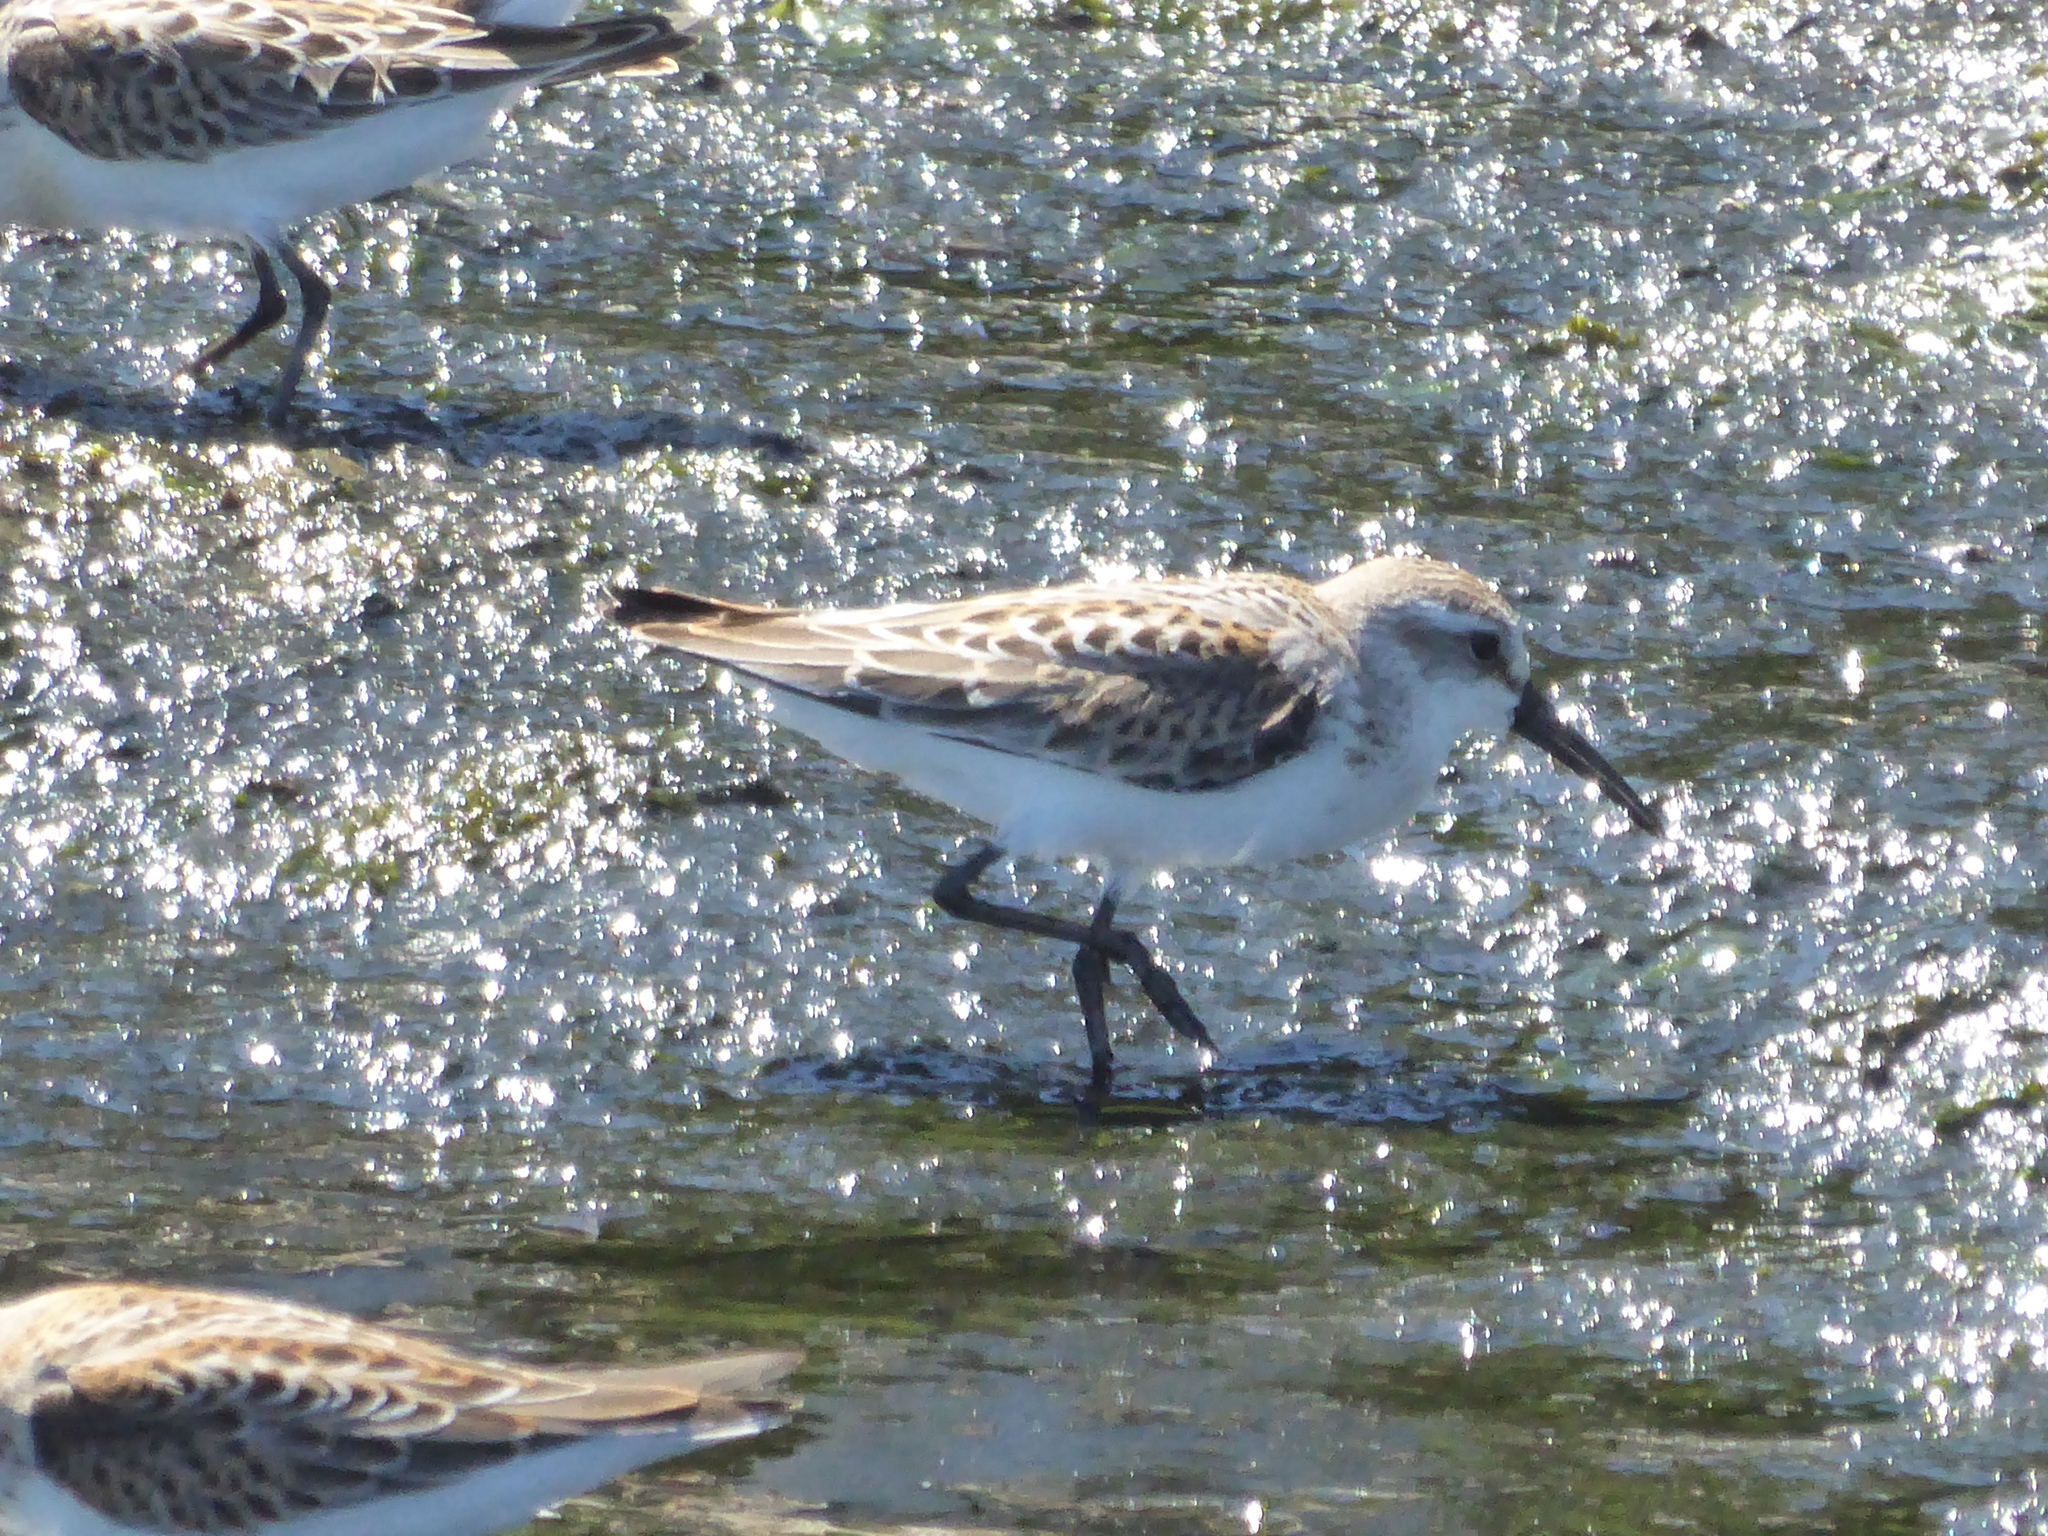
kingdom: Animalia
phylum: Chordata
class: Aves
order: Charadriiformes
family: Scolopacidae
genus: Calidris
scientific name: Calidris mauri
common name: Western sandpiper
